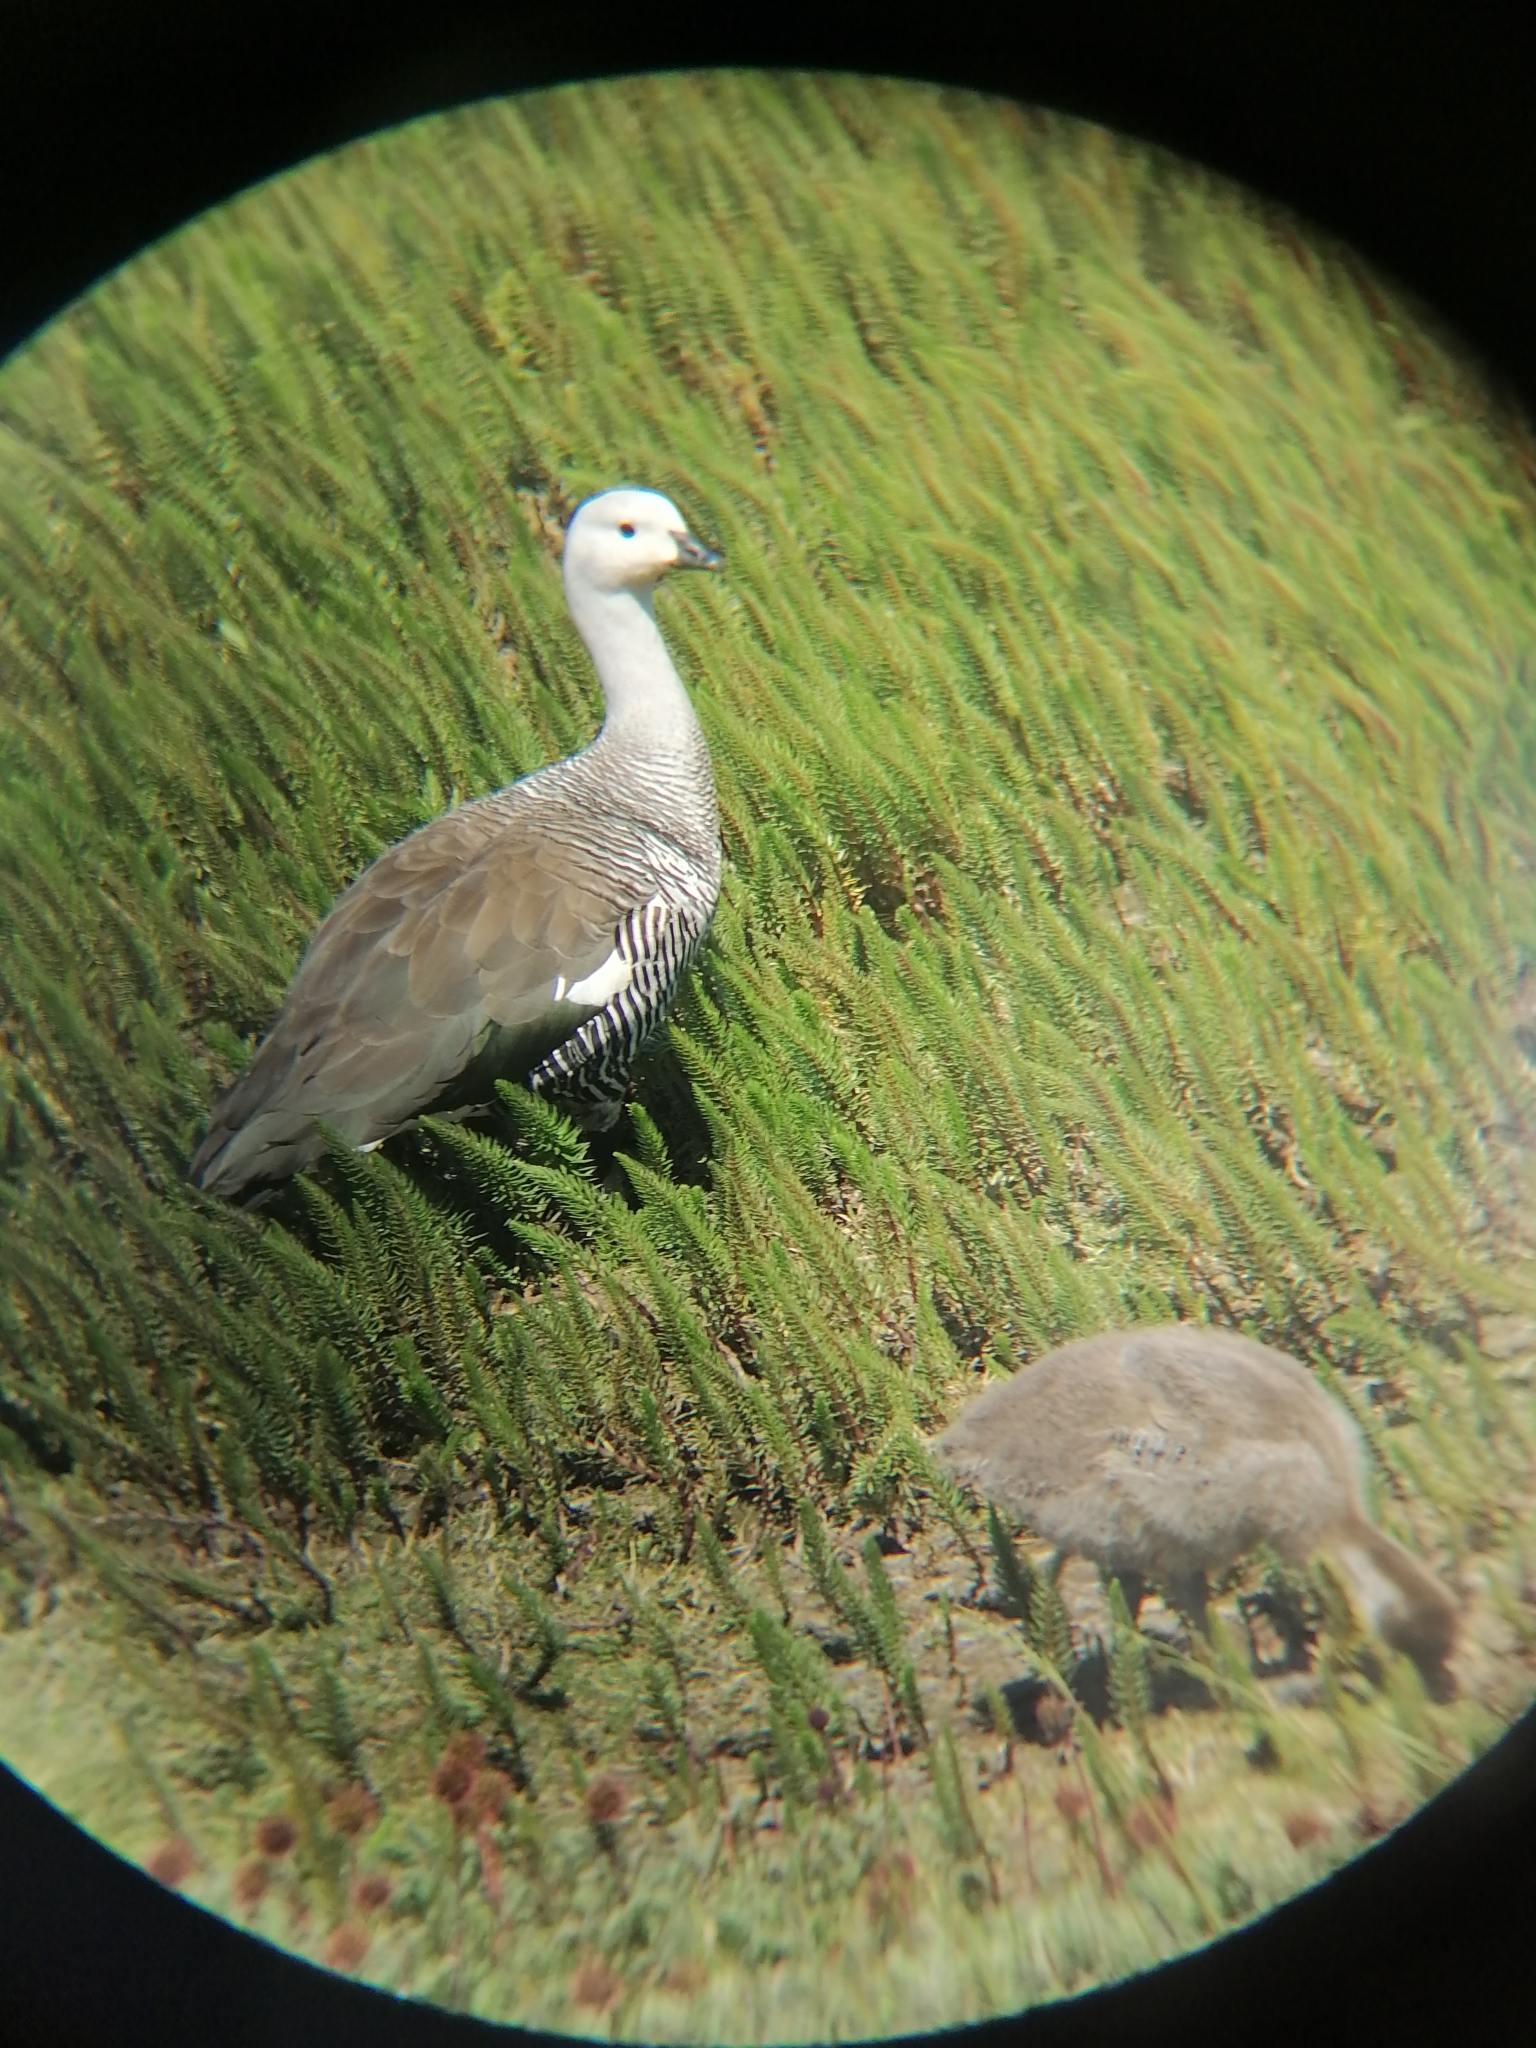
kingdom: Animalia
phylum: Chordata
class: Aves
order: Anseriformes
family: Anatidae
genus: Chloephaga
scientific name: Chloephaga picta
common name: Upland goose
